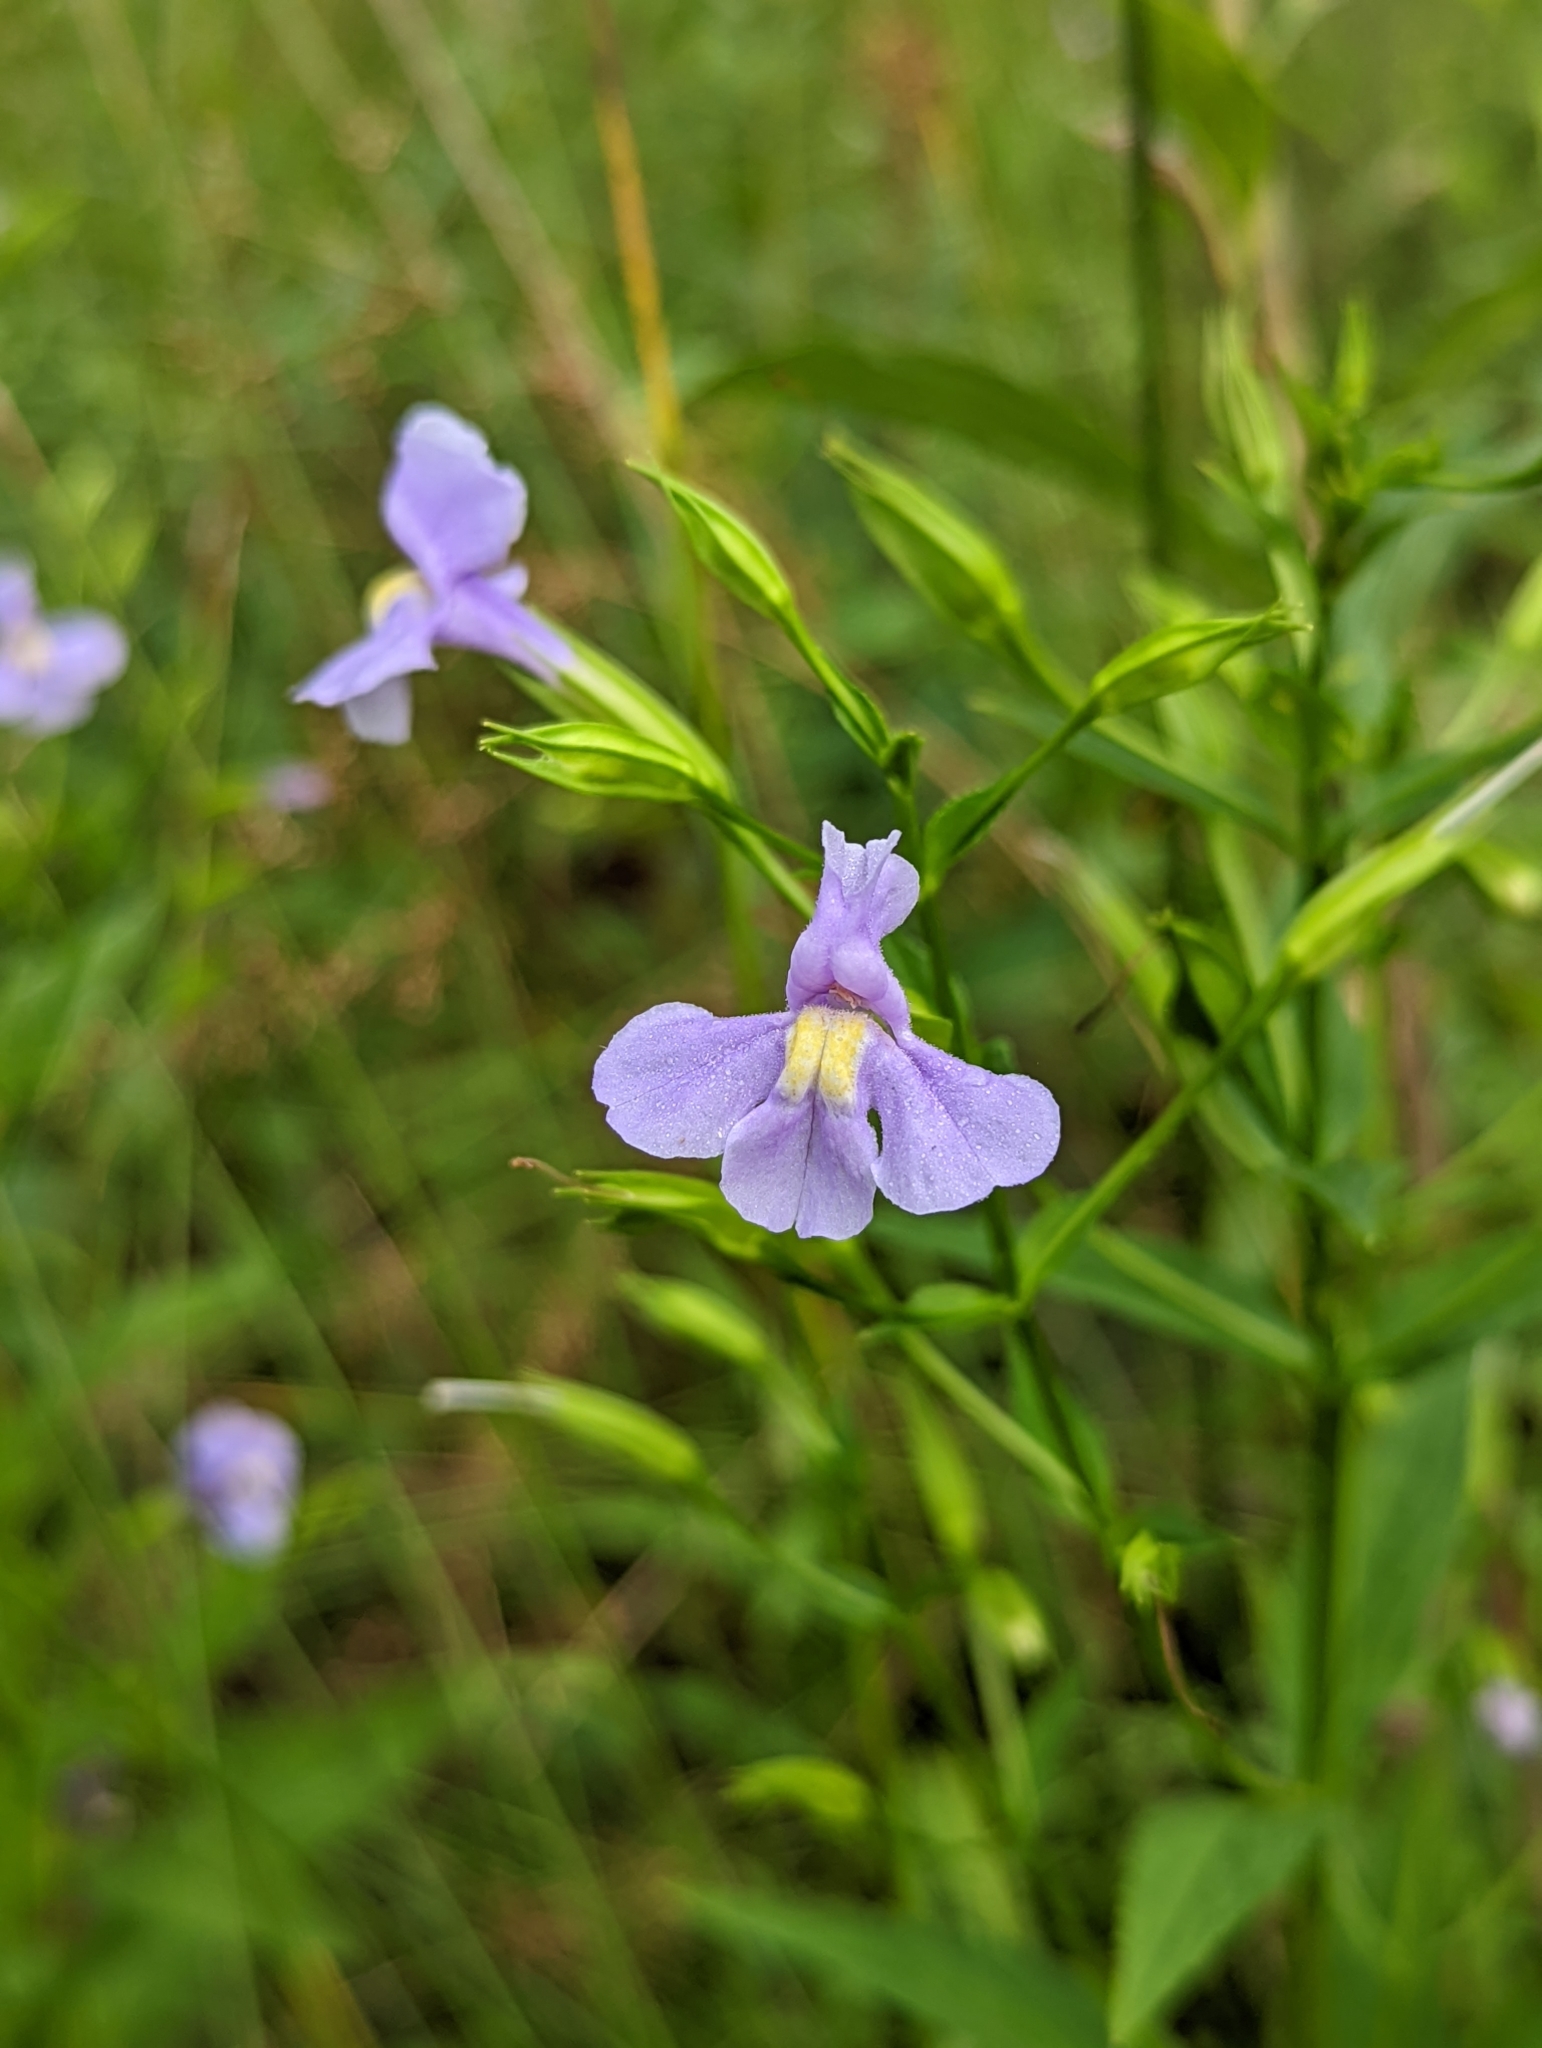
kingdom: Plantae
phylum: Tracheophyta
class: Magnoliopsida
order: Lamiales
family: Phrymaceae
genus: Mimulus
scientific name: Mimulus ringens
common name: Allegheny monkeyflower
